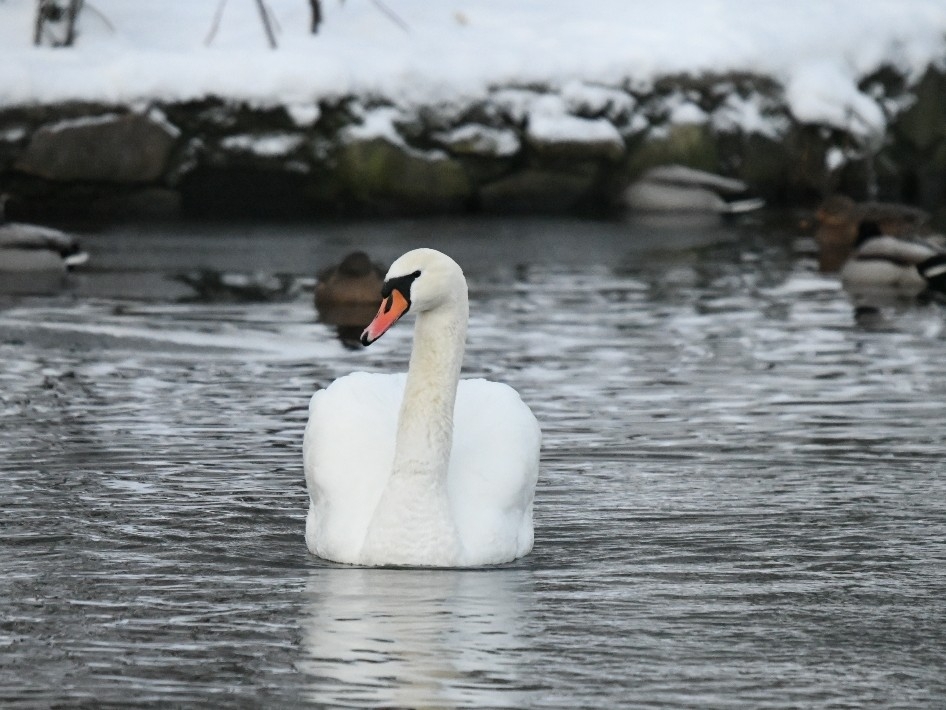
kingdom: Animalia
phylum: Chordata
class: Aves
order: Anseriformes
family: Anatidae
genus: Cygnus
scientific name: Cygnus olor
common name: Mute swan
